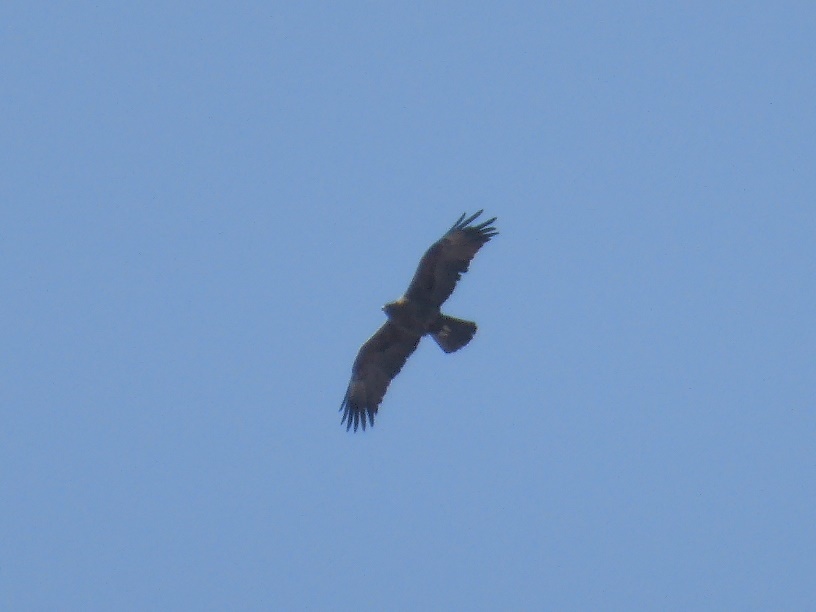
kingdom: Animalia
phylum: Chordata
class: Aves
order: Accipitriformes
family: Accipitridae
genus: Hieraaetus
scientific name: Hieraaetus wahlbergi
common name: Wahlberg's eagle
